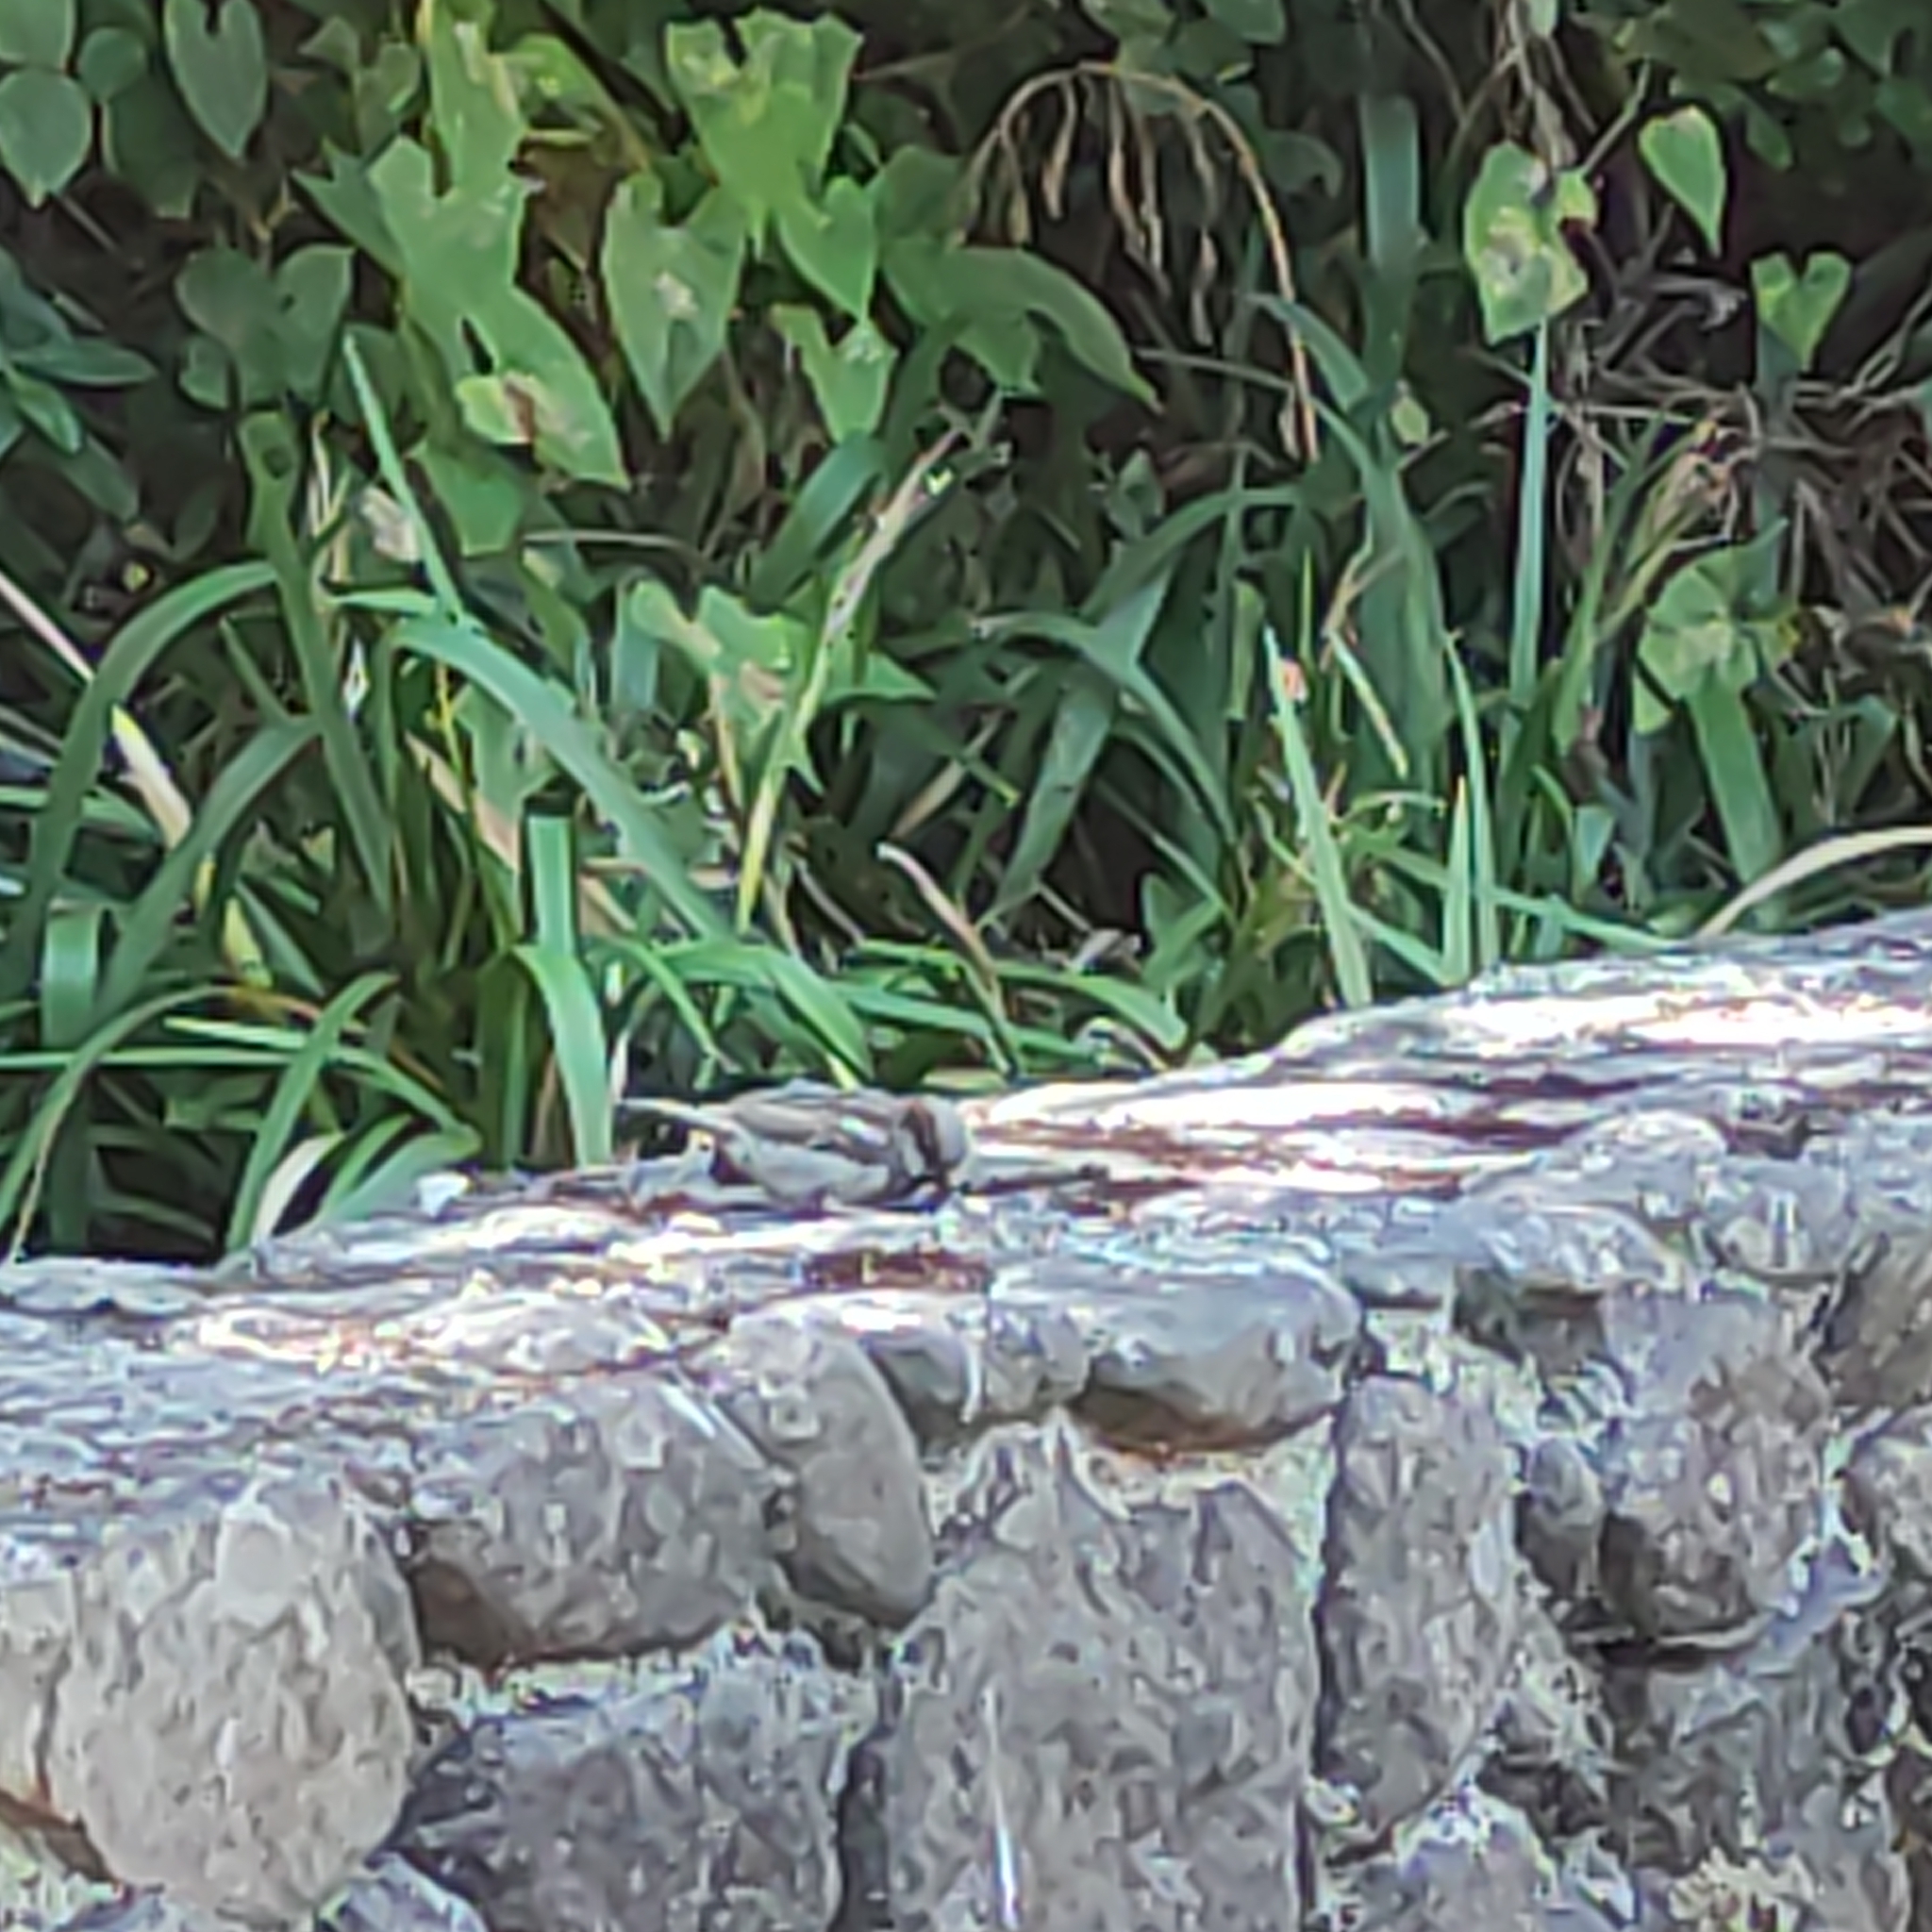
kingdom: Animalia
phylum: Chordata
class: Aves
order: Passeriformes
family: Passeridae
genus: Passer
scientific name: Passer domesticus
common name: House sparrow
